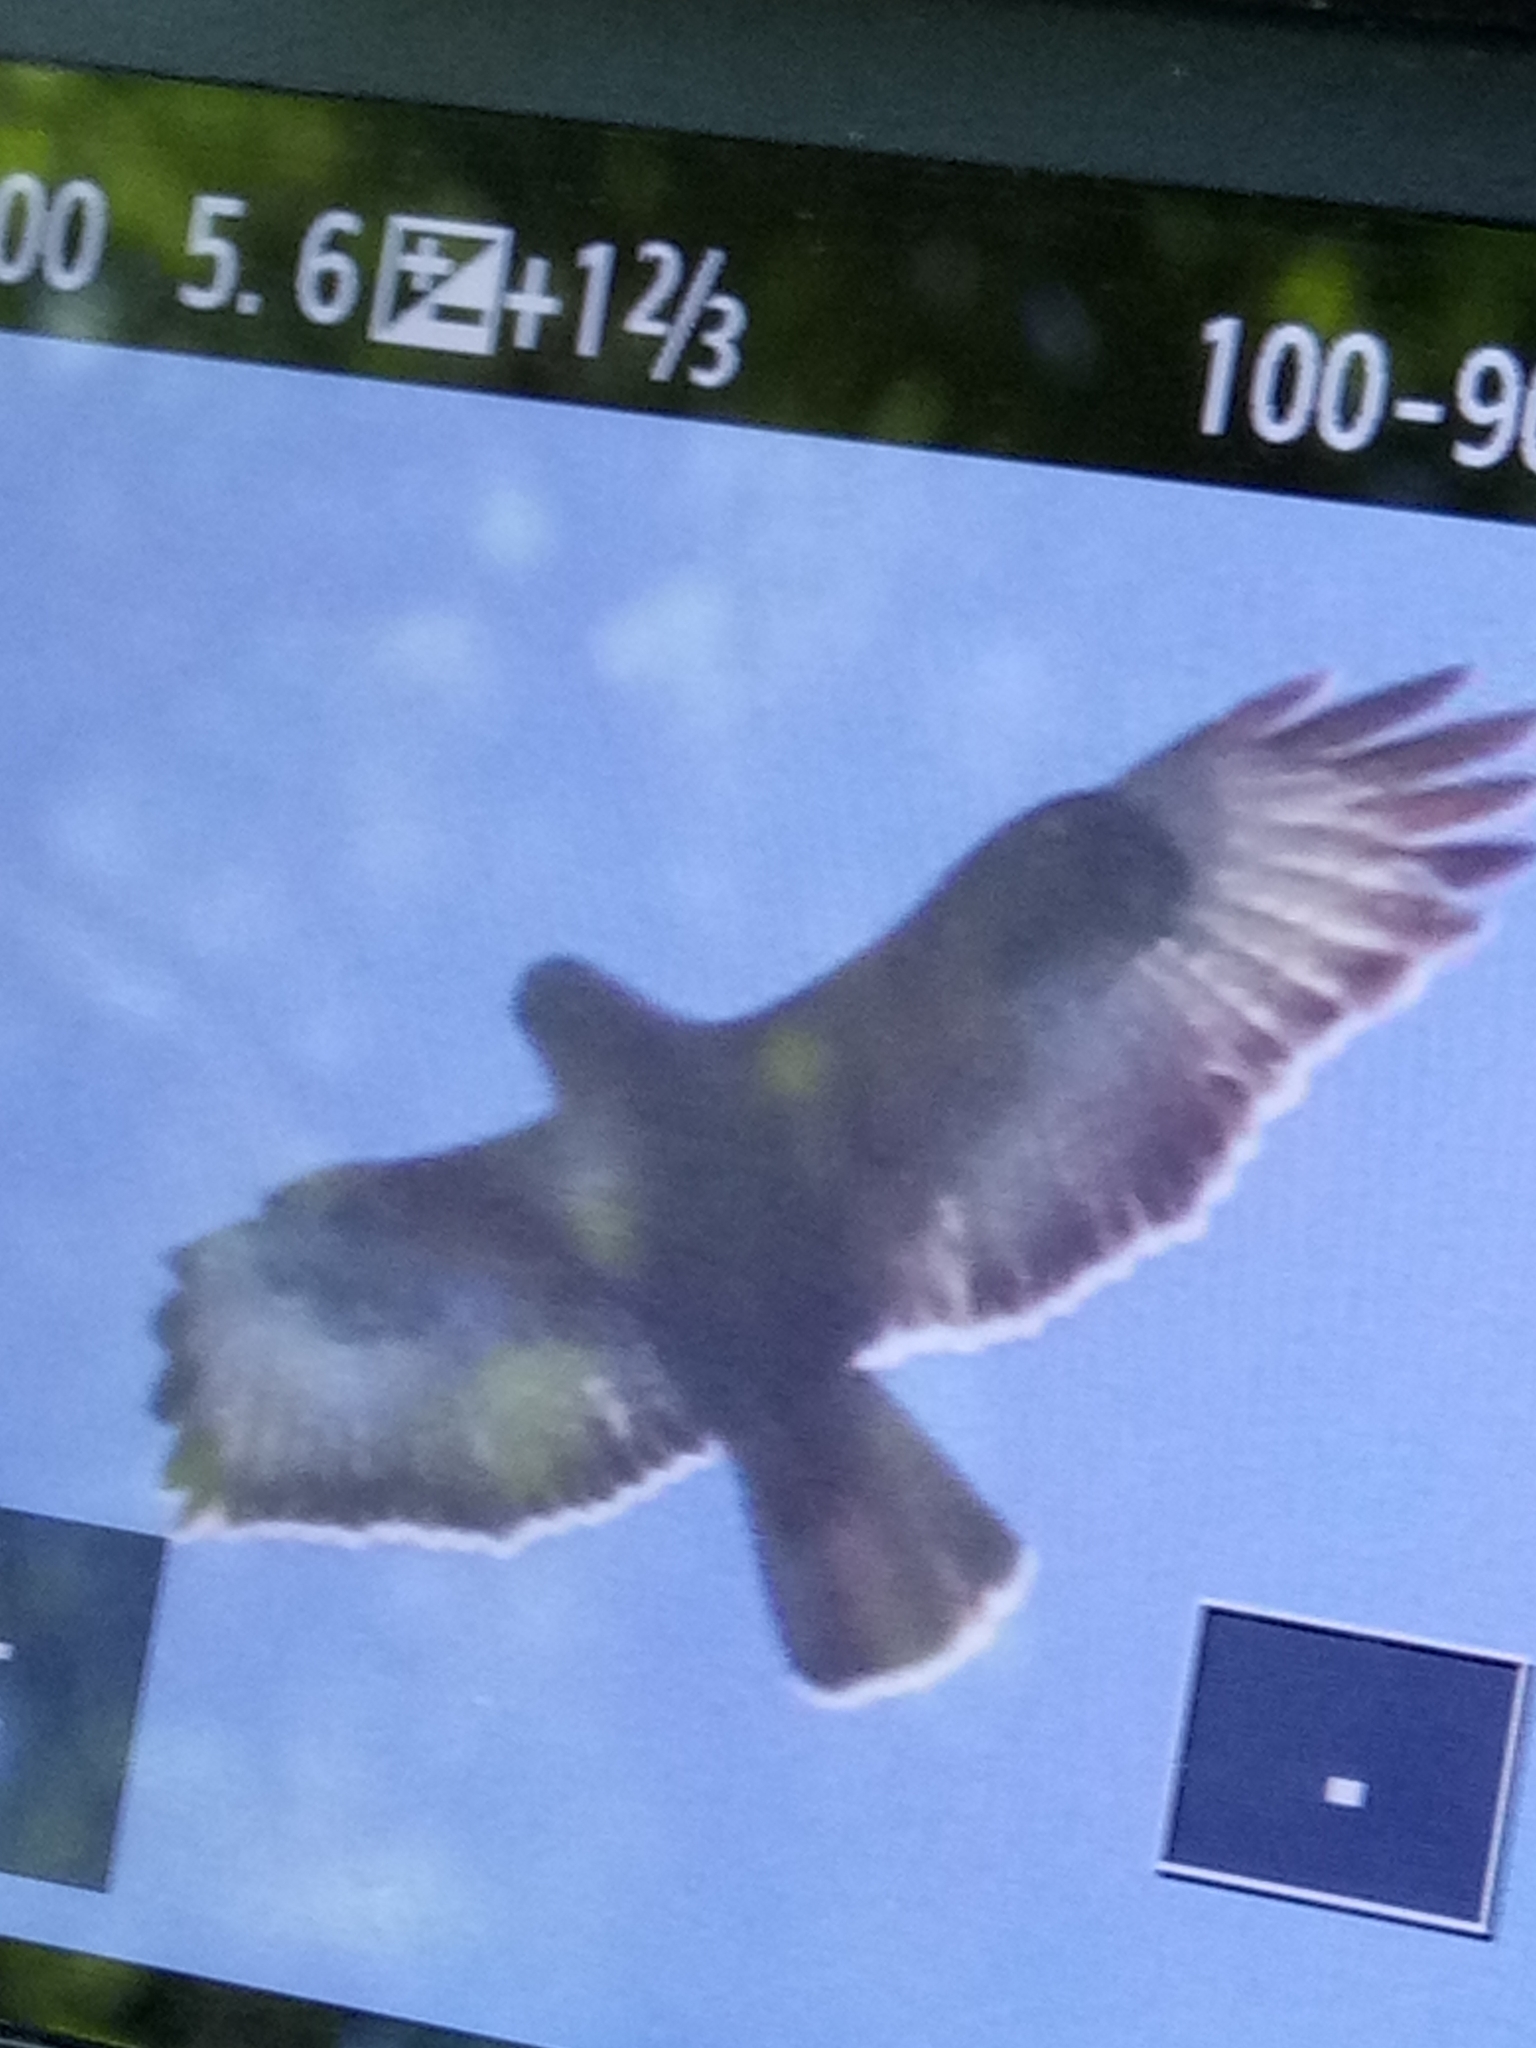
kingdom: Animalia
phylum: Chordata
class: Aves
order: Accipitriformes
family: Accipitridae
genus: Buteo
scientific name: Buteo rufinus
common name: Long-legged buzzard
